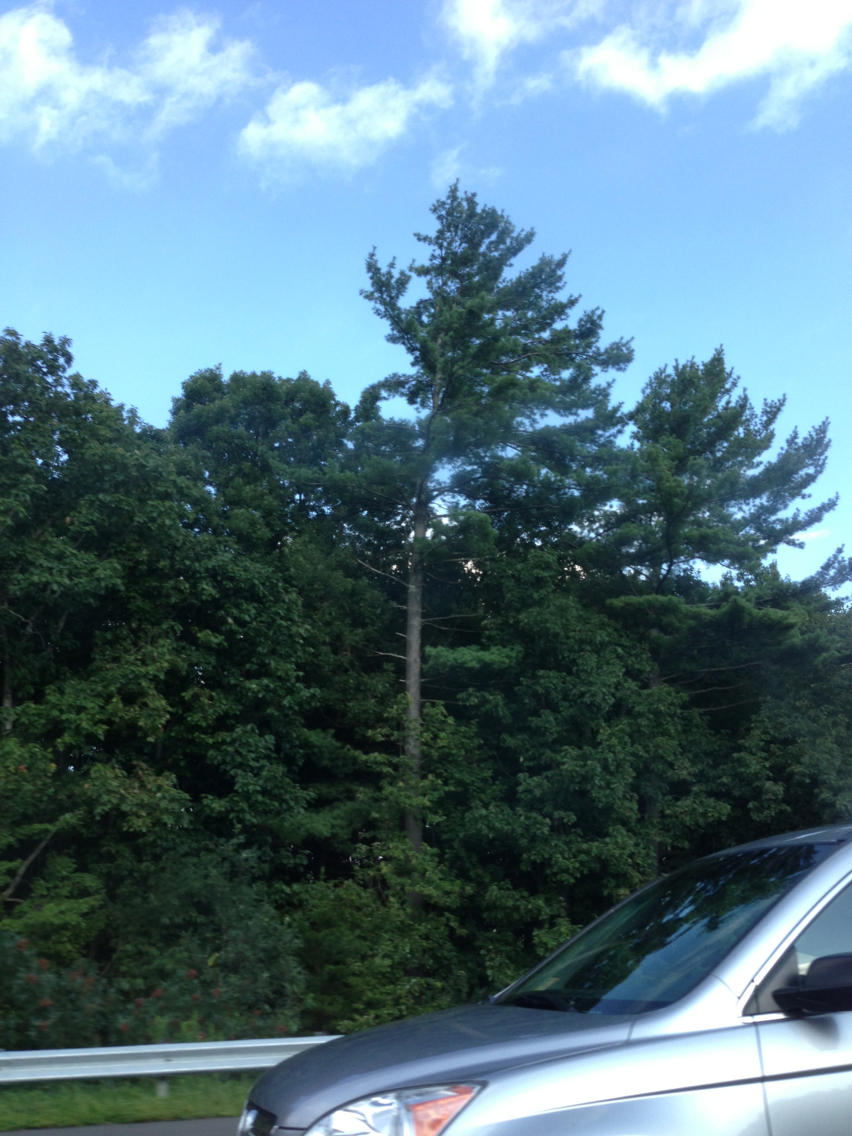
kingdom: Plantae
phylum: Tracheophyta
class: Pinopsida
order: Pinales
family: Pinaceae
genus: Pinus
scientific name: Pinus strobus
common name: Weymouth pine
